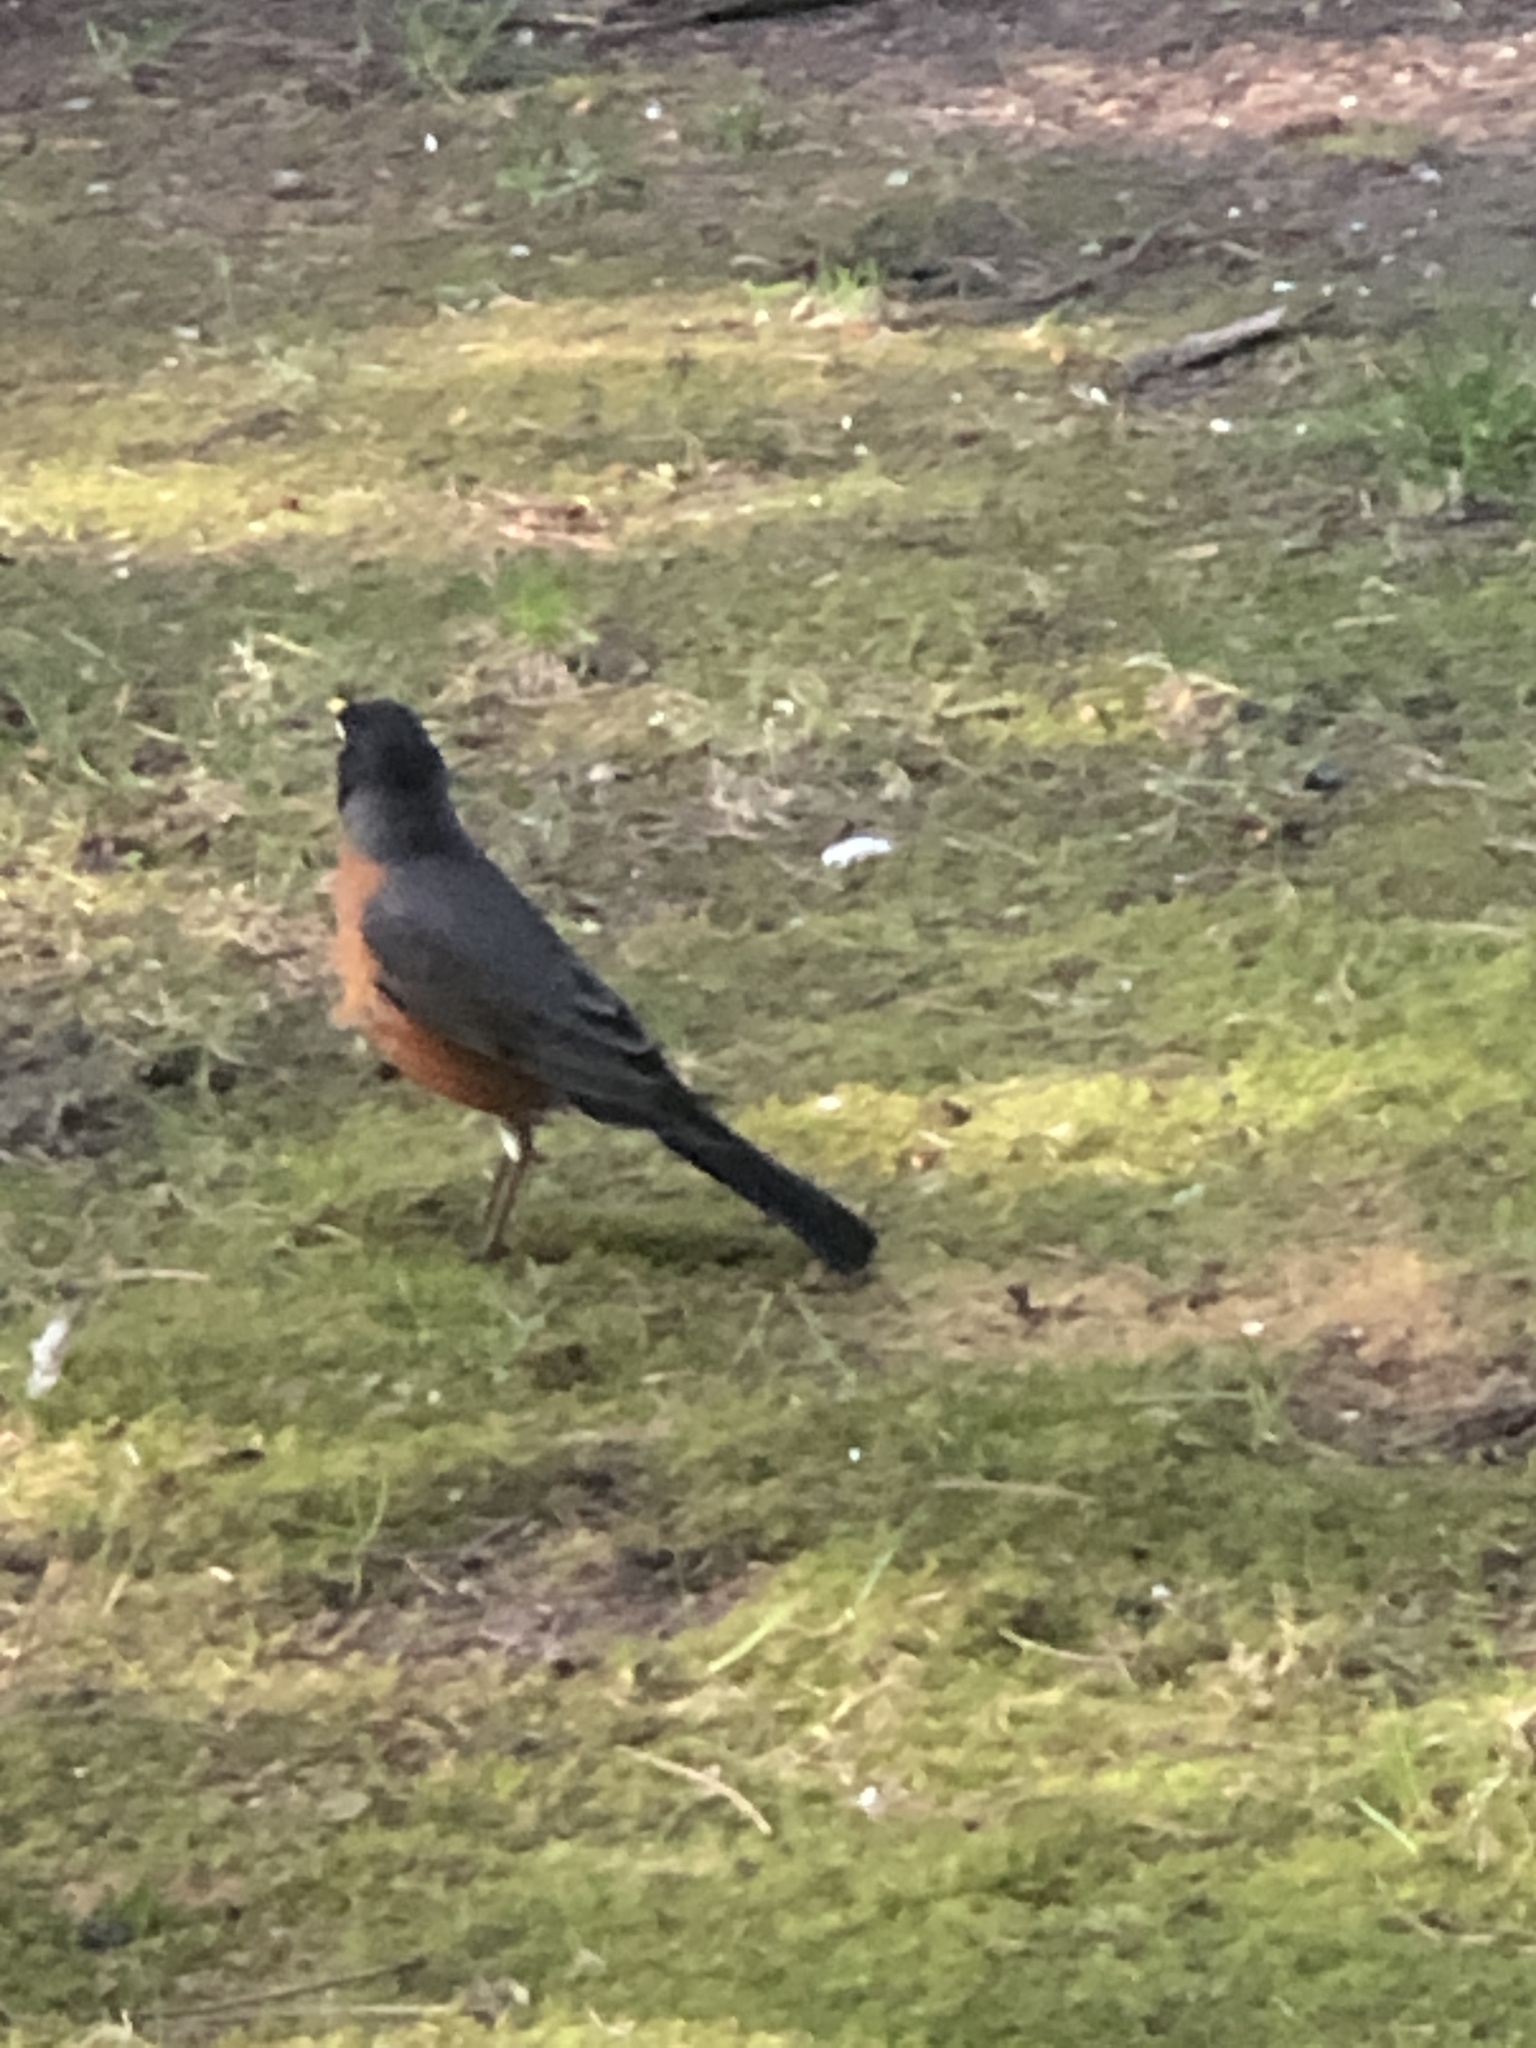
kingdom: Animalia
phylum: Chordata
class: Aves
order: Passeriformes
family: Turdidae
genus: Turdus
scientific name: Turdus migratorius
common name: American robin
